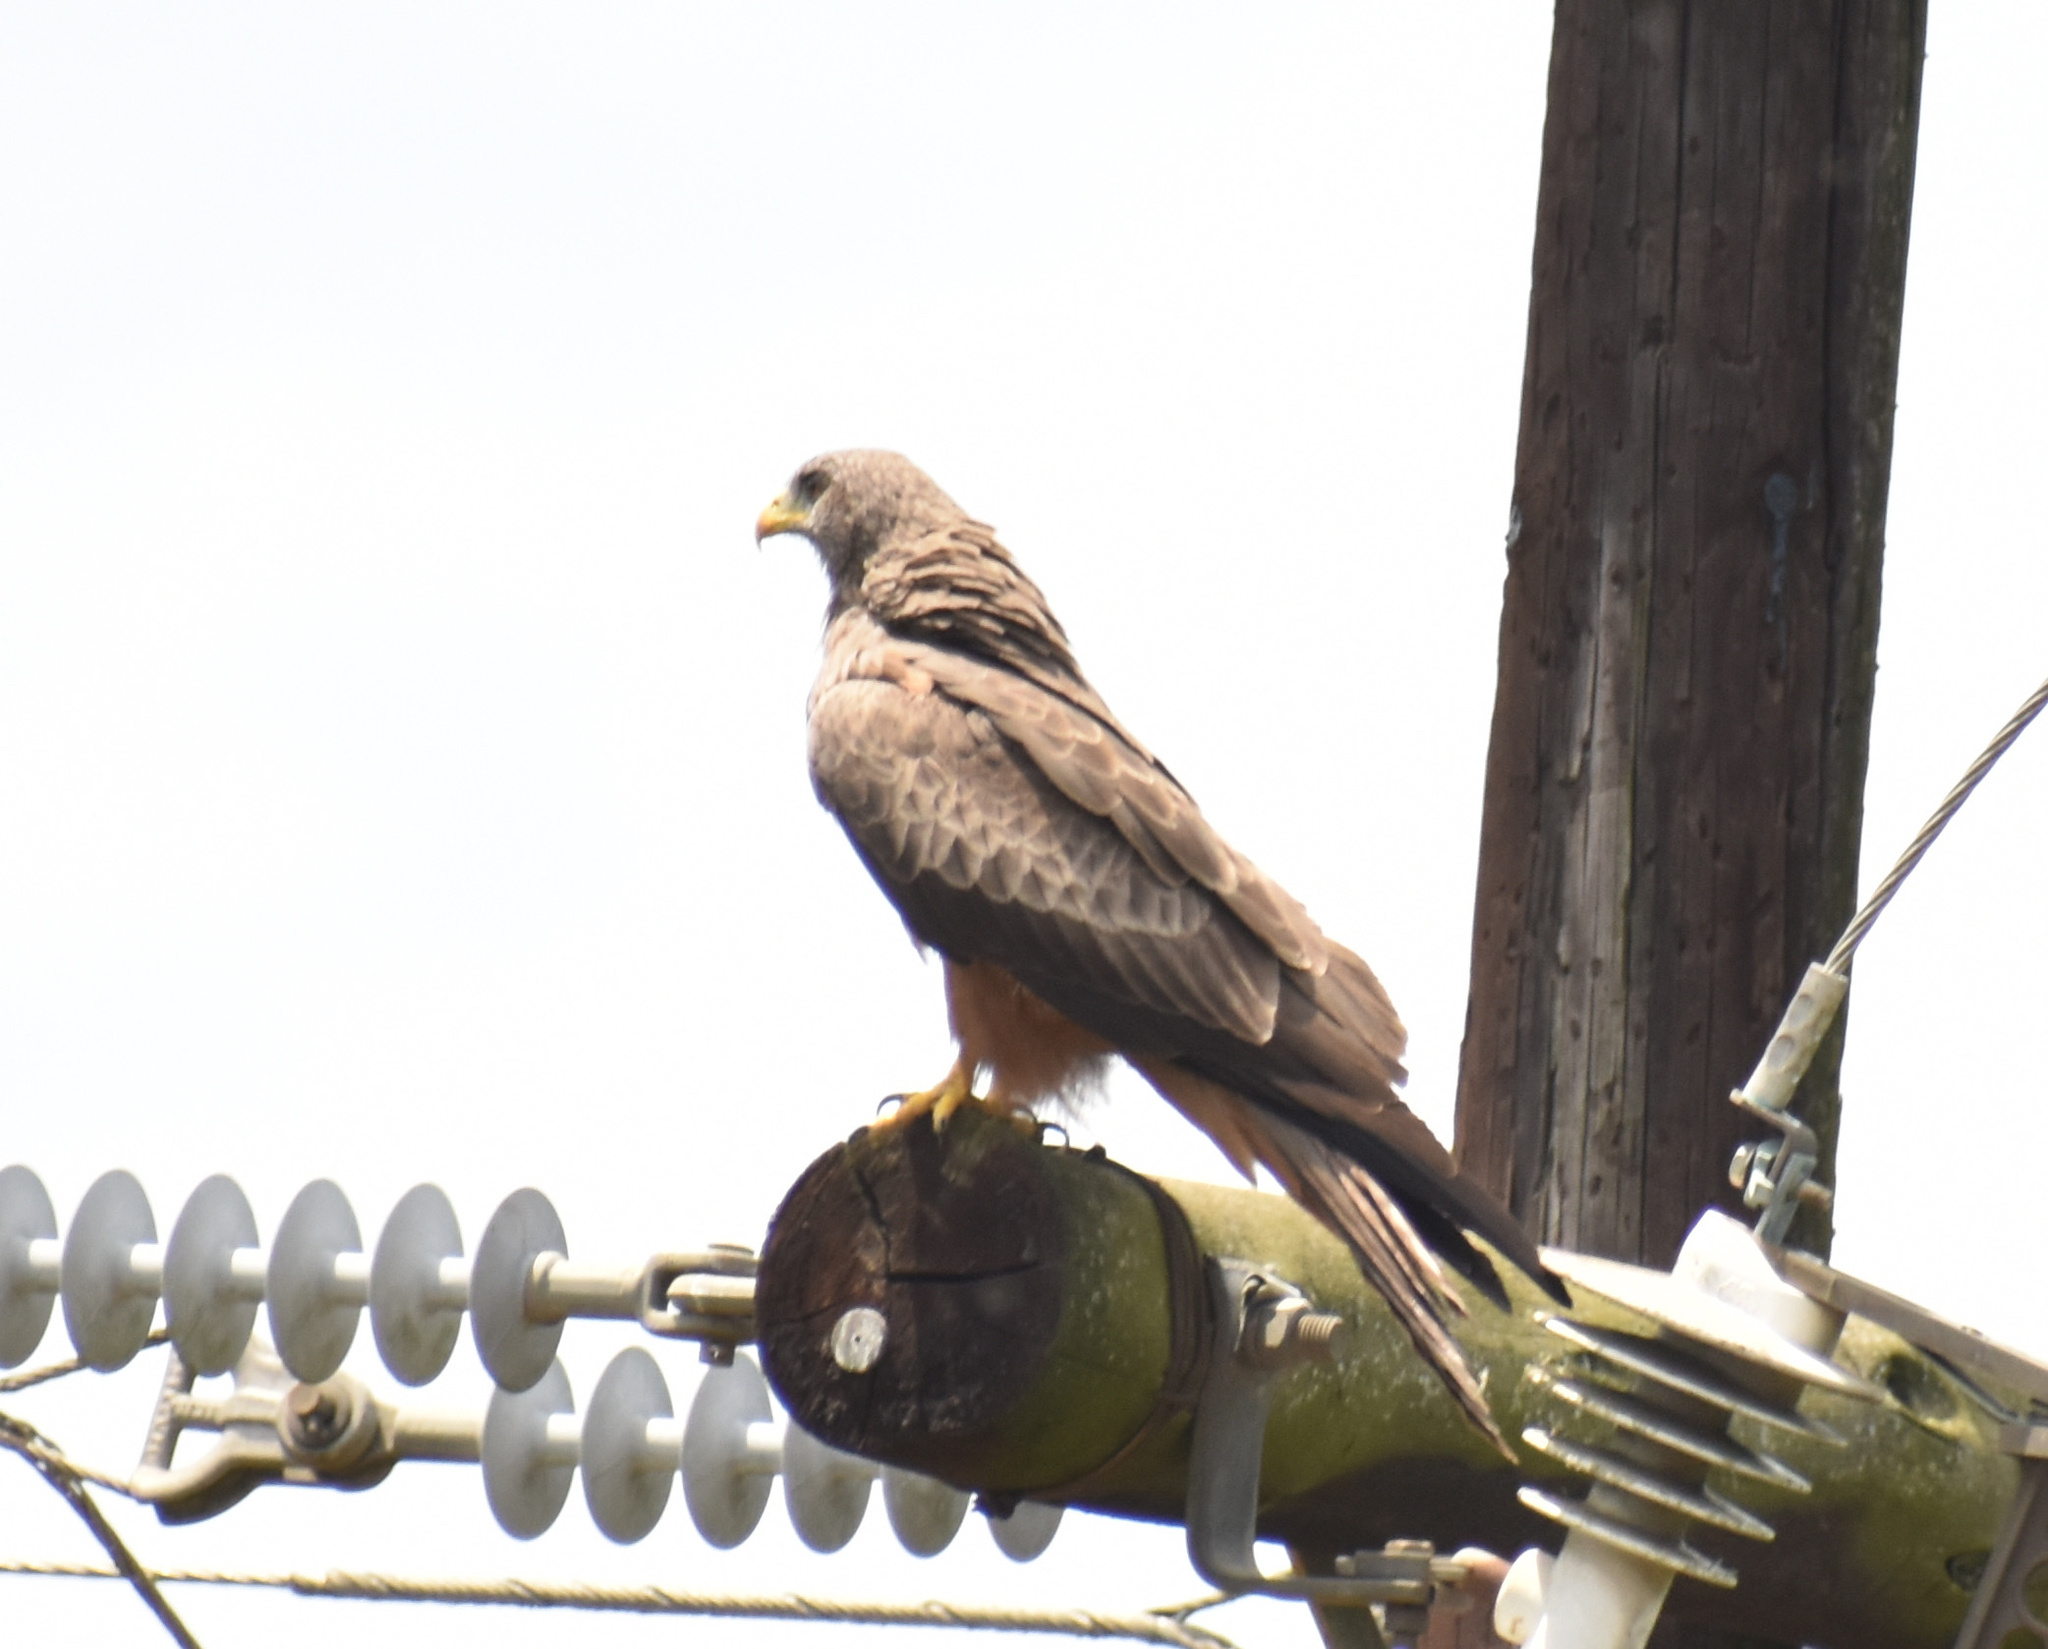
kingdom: Animalia
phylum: Chordata
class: Aves
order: Accipitriformes
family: Accipitridae
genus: Milvus
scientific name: Milvus migrans
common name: Black kite
